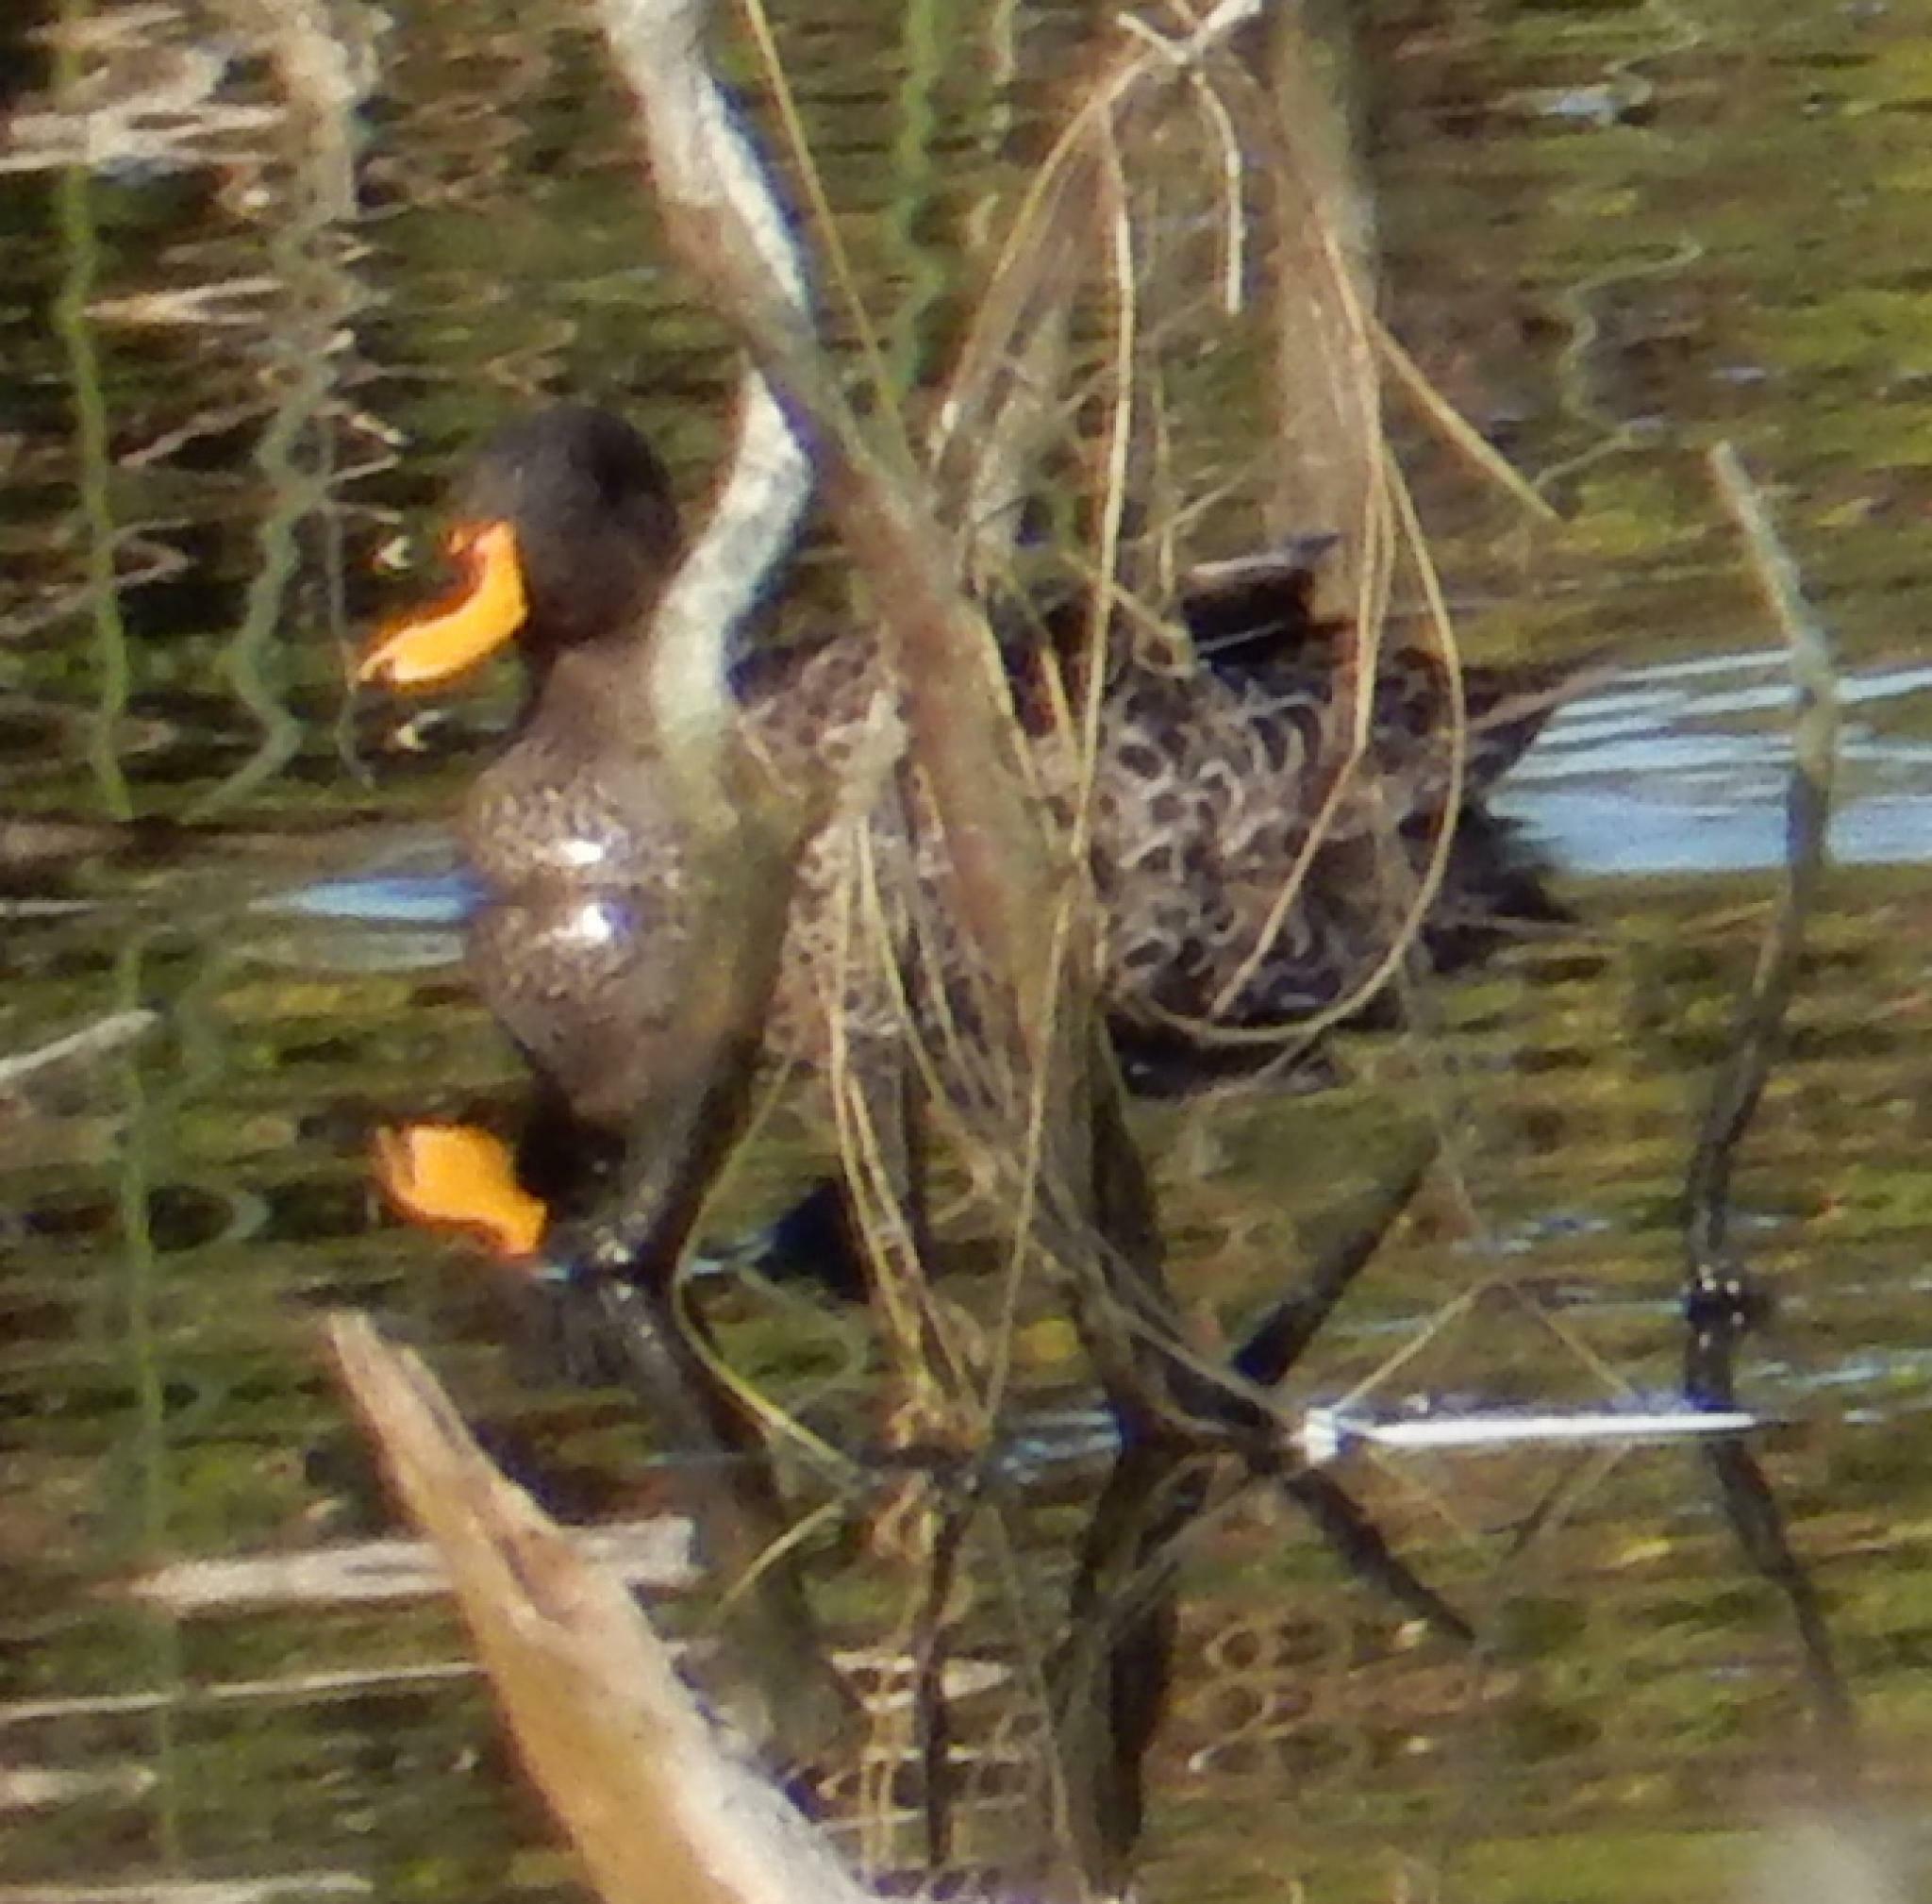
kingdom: Animalia
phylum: Chordata
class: Aves
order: Anseriformes
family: Anatidae
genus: Anas
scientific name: Anas undulata
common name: Yellow-billed duck
